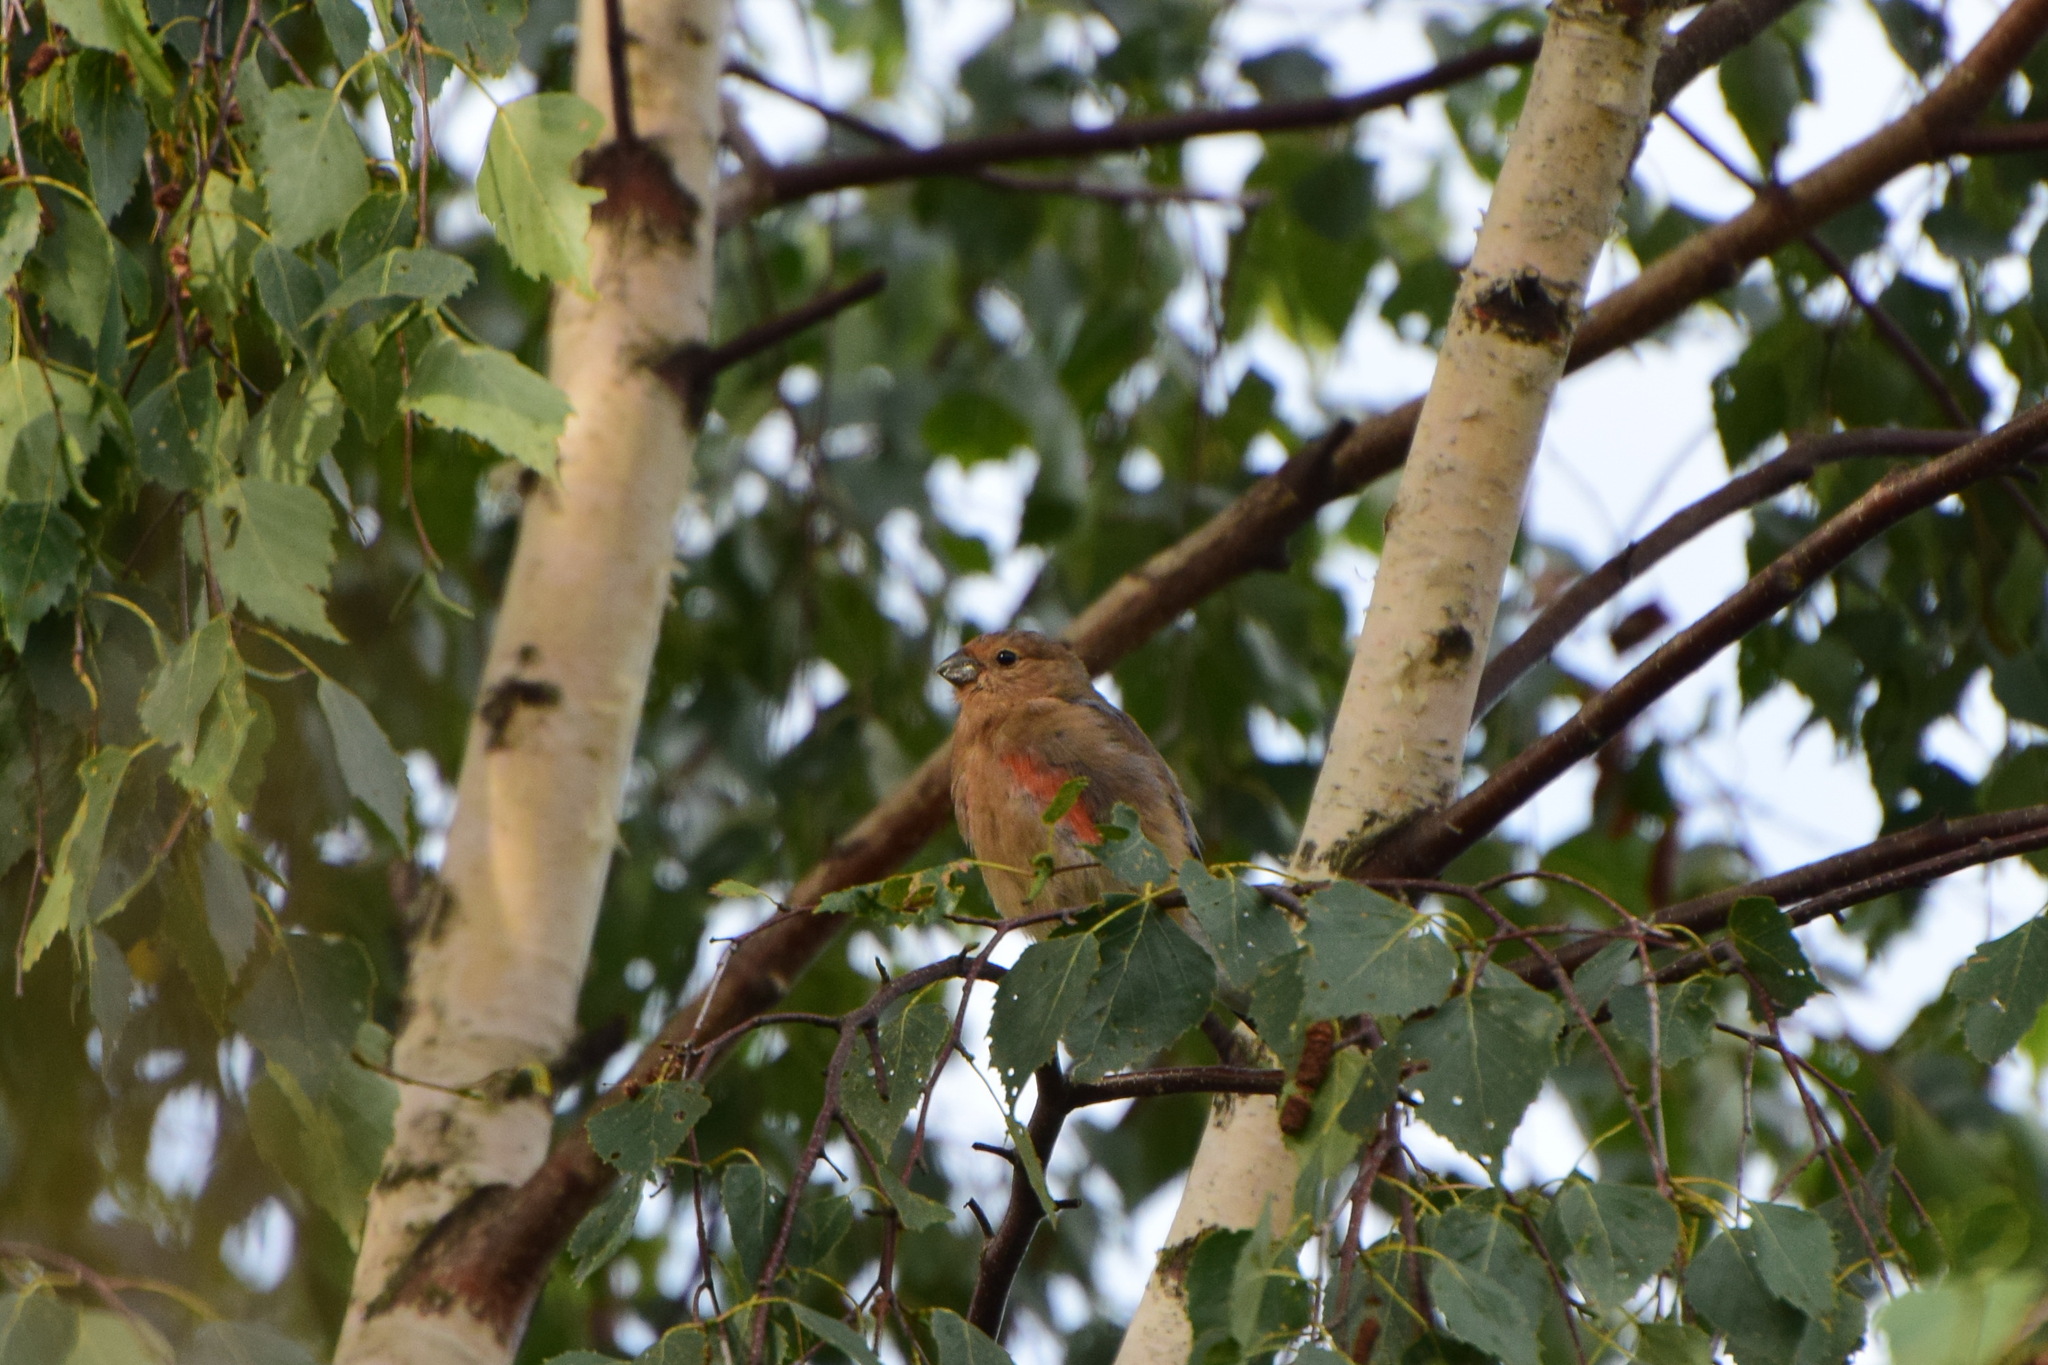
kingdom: Animalia
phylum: Chordata
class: Aves
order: Passeriformes
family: Fringillidae
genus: Pyrrhula
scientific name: Pyrrhula pyrrhula
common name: Eurasian bullfinch
